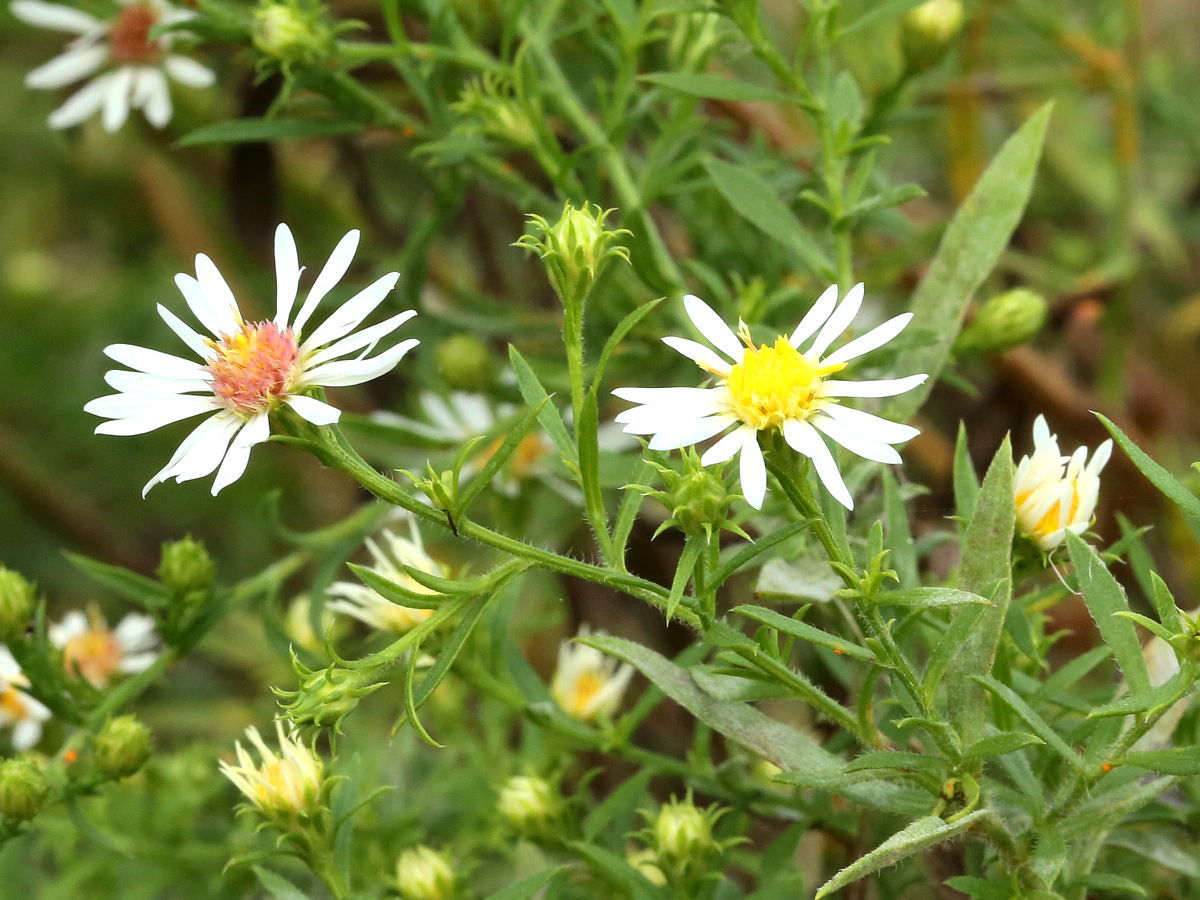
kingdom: Plantae
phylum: Tracheophyta
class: Magnoliopsida
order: Asterales
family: Asteraceae
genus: Symphyotrichum
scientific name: Symphyotrichum pilosum
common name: Awl aster
